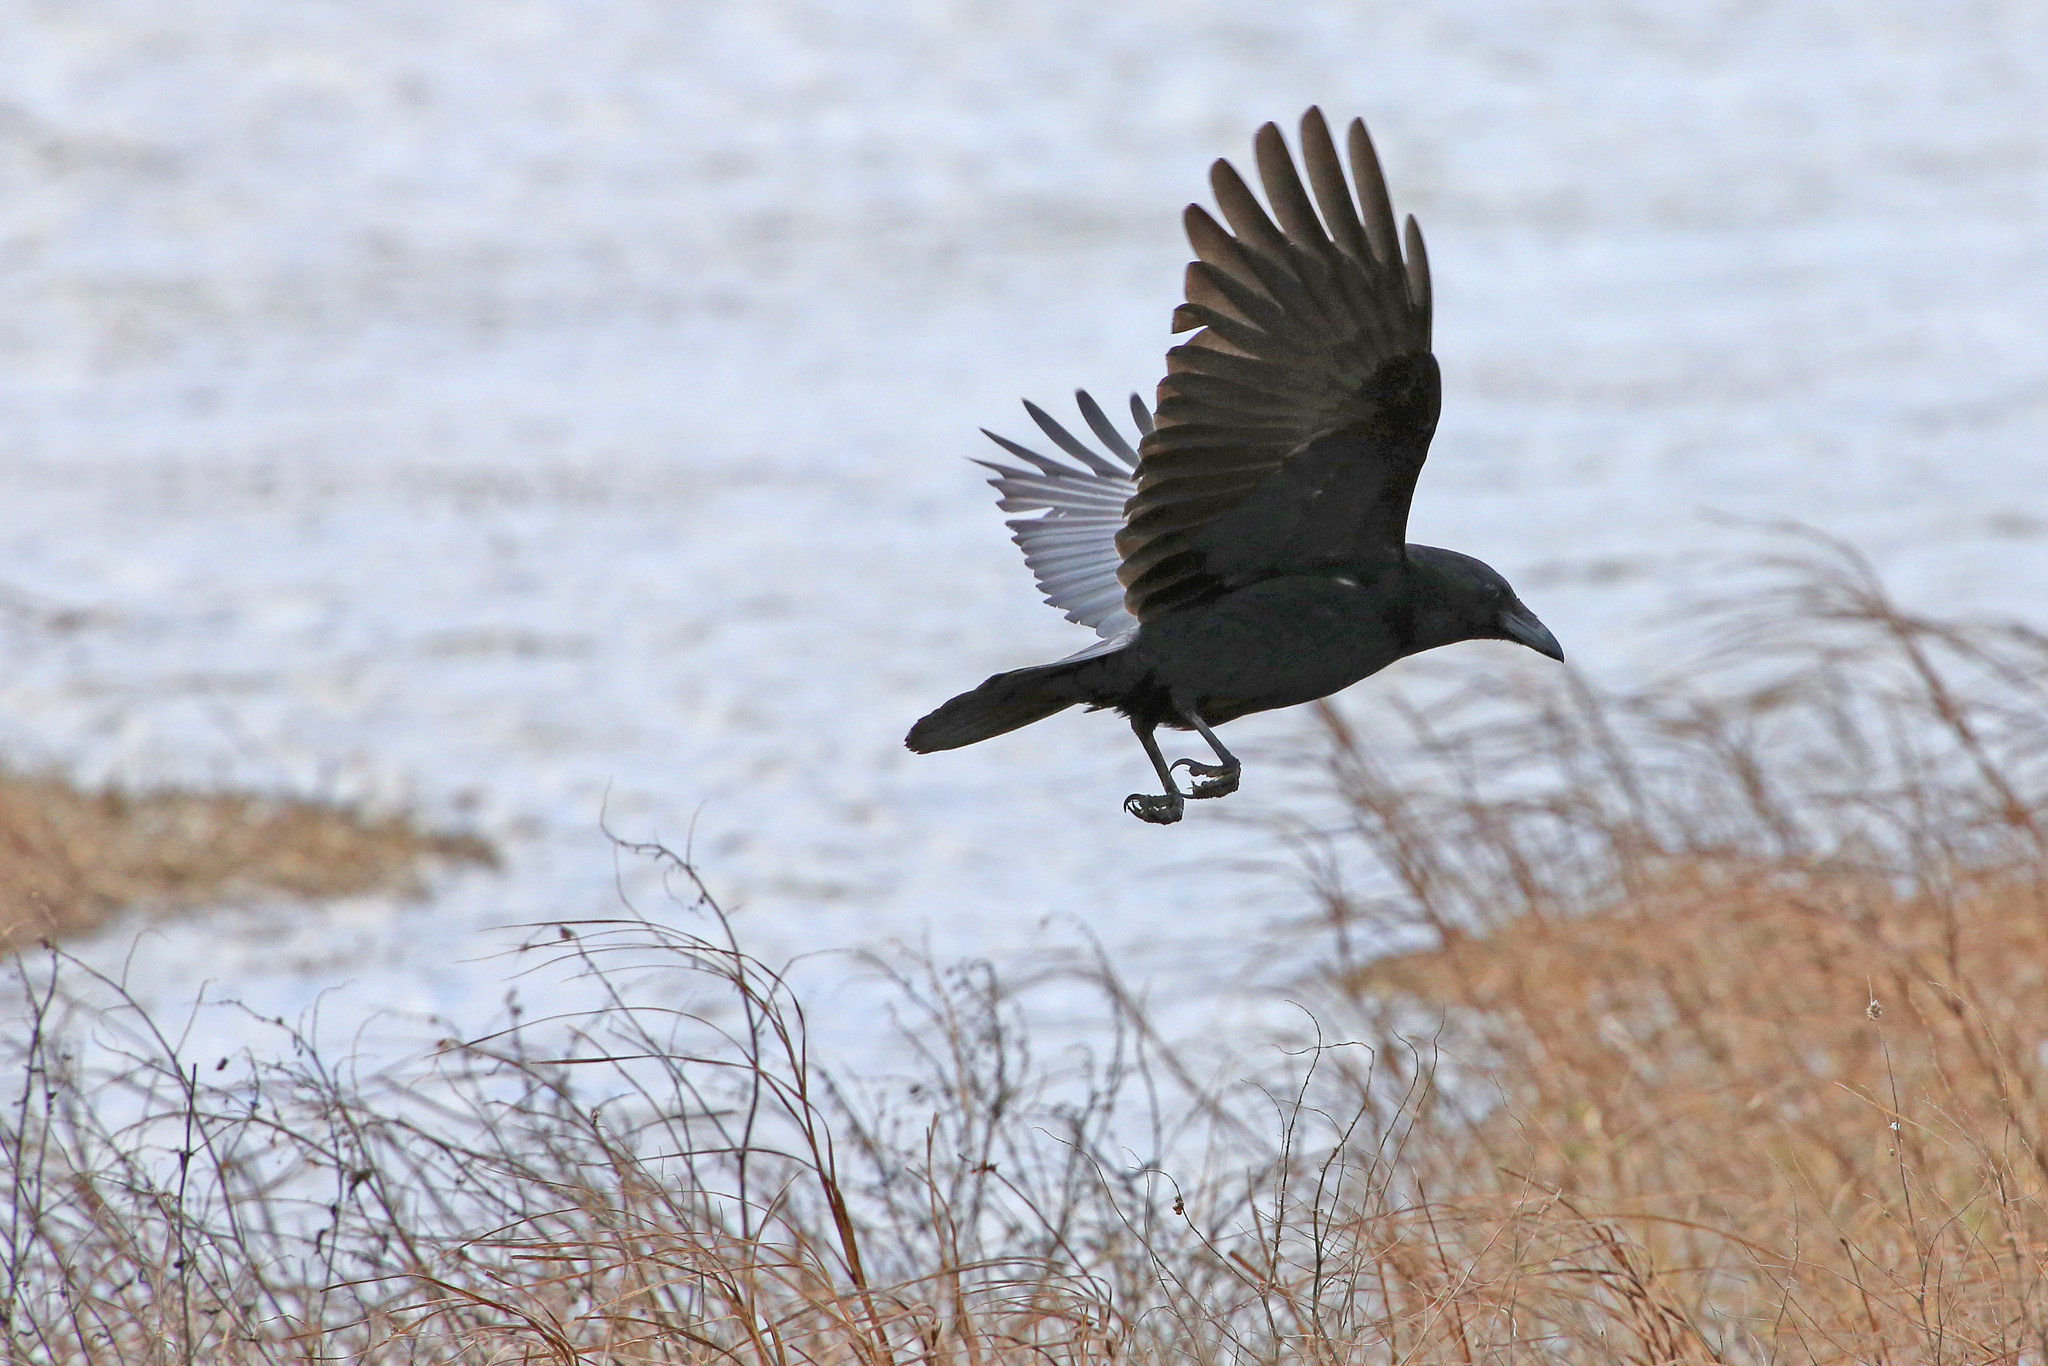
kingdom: Animalia
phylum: Chordata
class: Aves
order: Passeriformes
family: Corvidae
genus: Corvus
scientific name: Corvus corone
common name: Carrion crow
